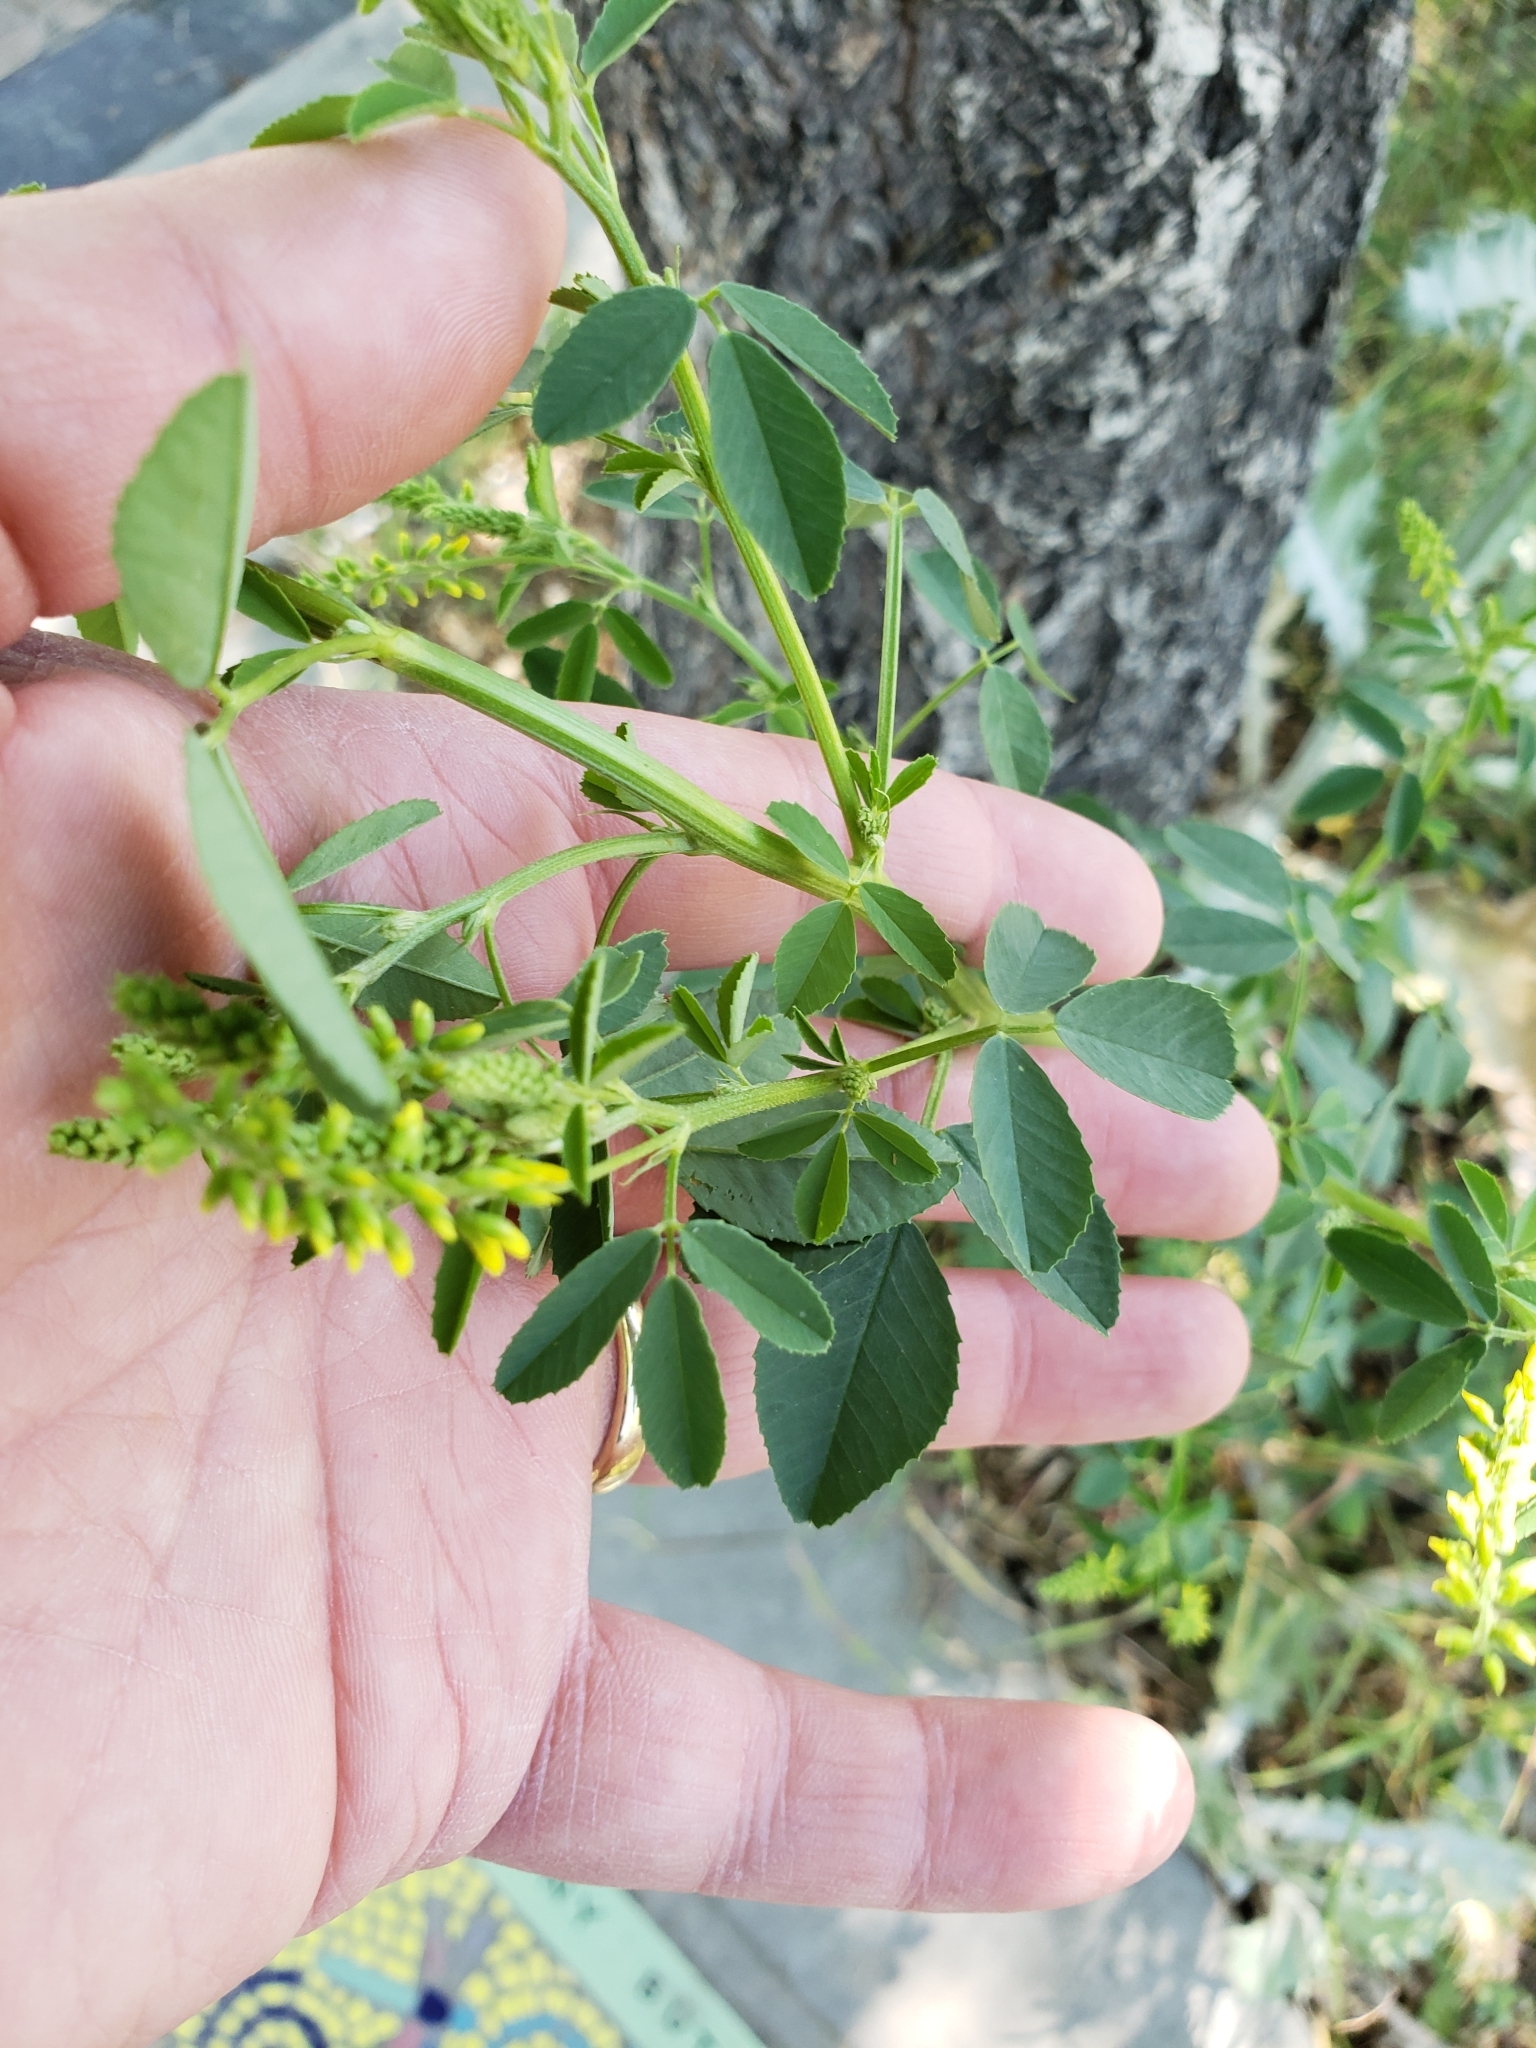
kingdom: Plantae
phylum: Tracheophyta
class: Magnoliopsida
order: Fabales
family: Fabaceae
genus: Melilotus
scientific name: Melilotus officinalis
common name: Sweetclover
